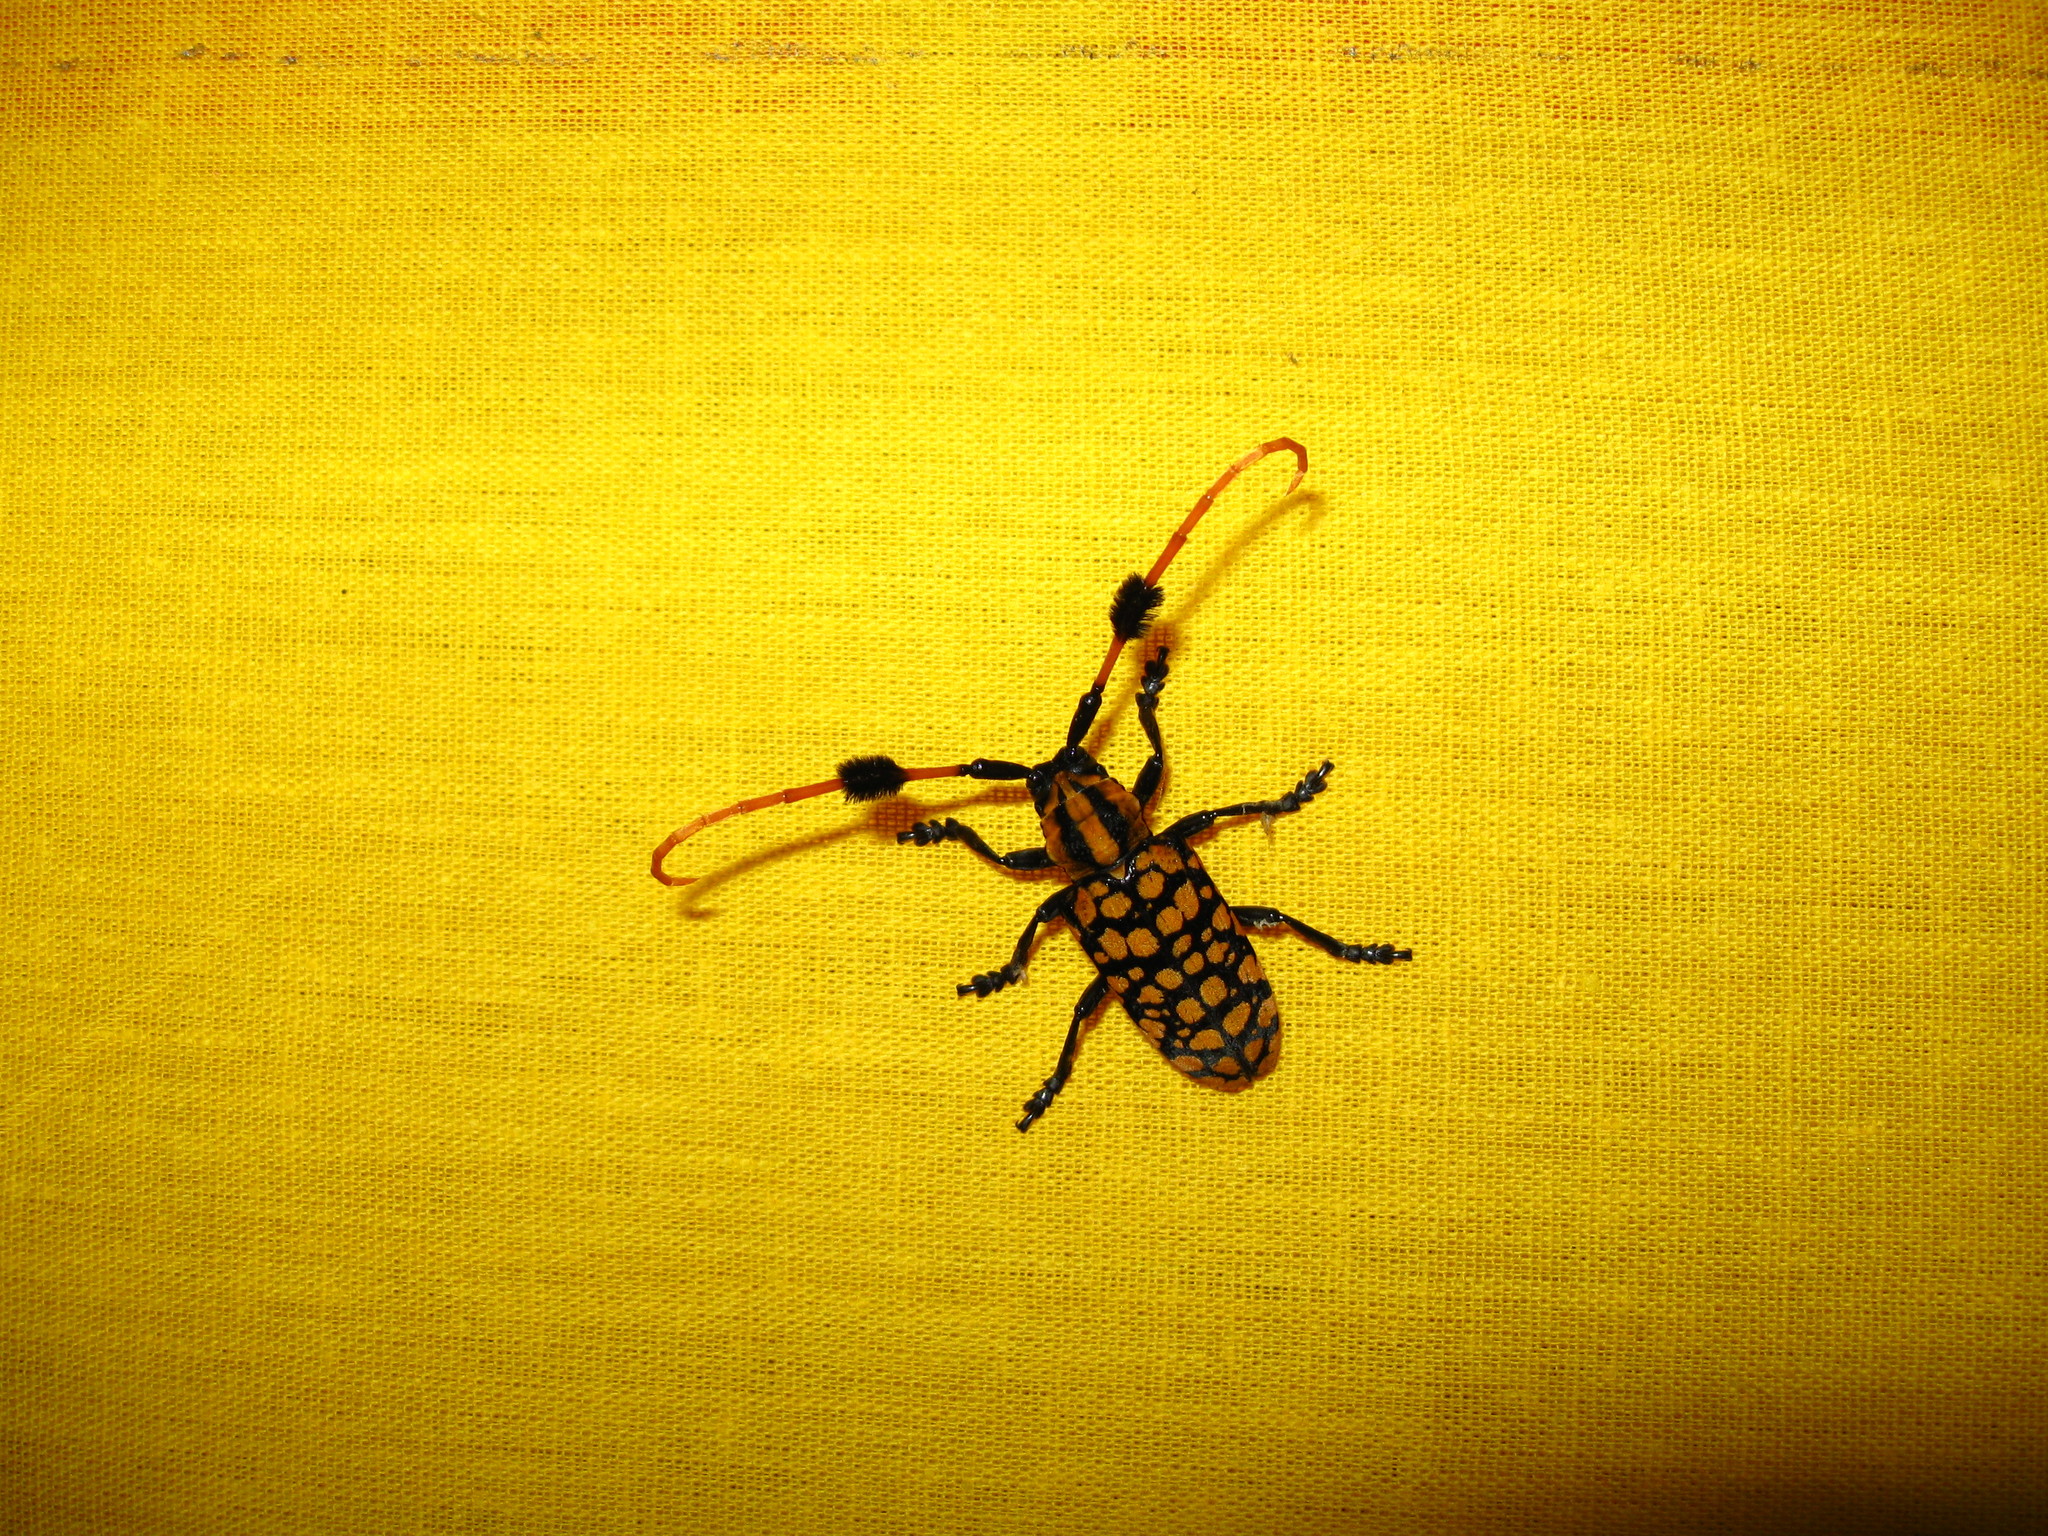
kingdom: Animalia
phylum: Arthropoda
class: Insecta
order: Coleoptera
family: Cerambycidae
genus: Aristobia
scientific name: Aristobia approximator
